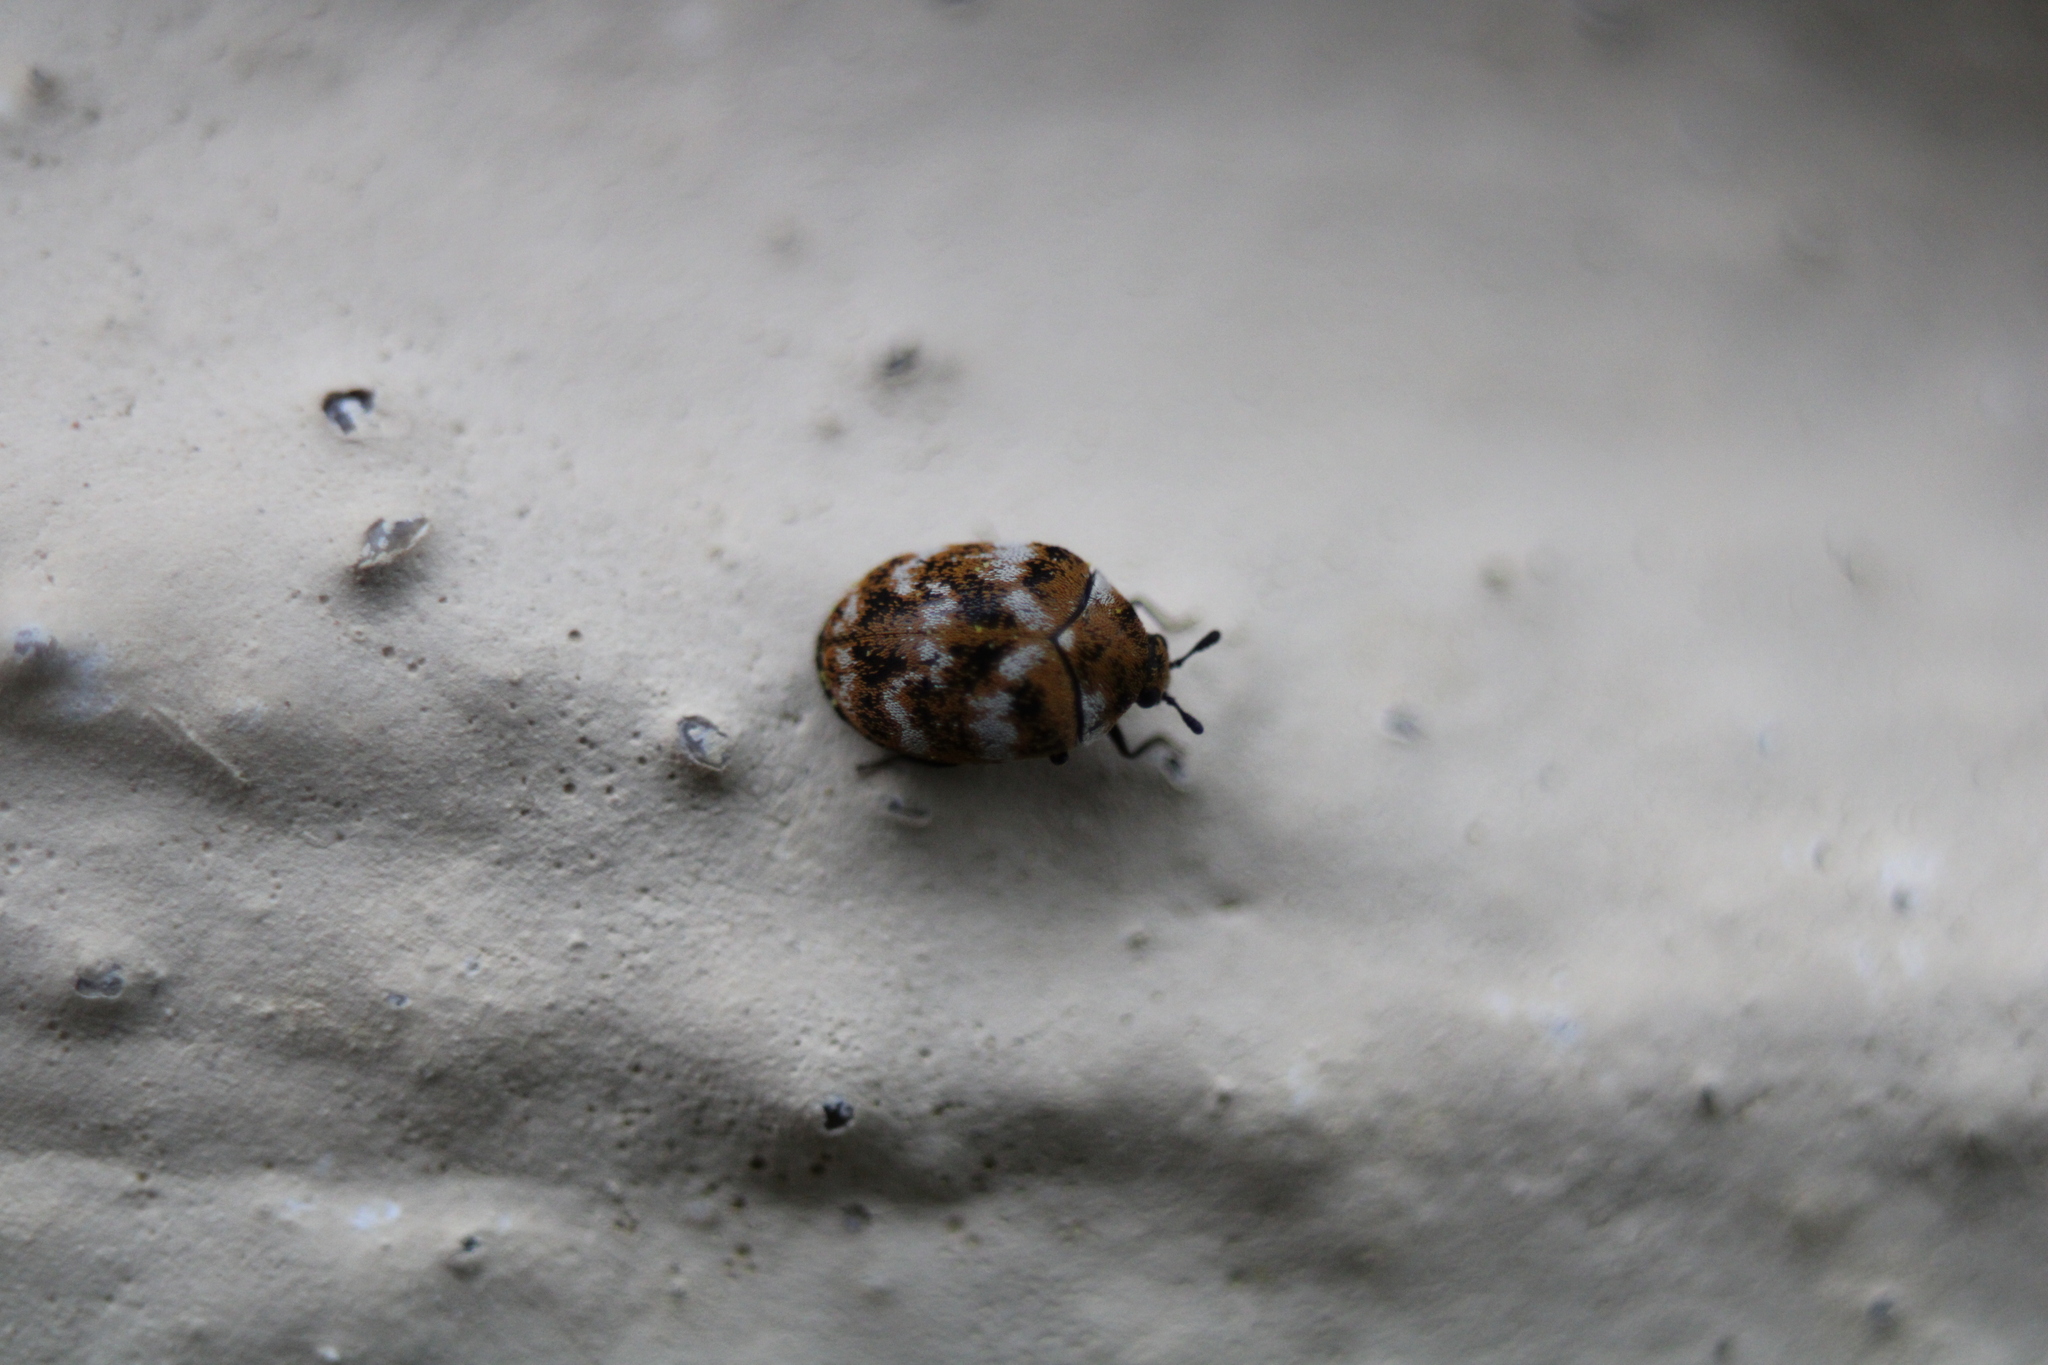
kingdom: Animalia
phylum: Arthropoda
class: Insecta
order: Coleoptera
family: Dermestidae
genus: Anthrenus
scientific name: Anthrenus verbasci
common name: Varied carpet beetle
